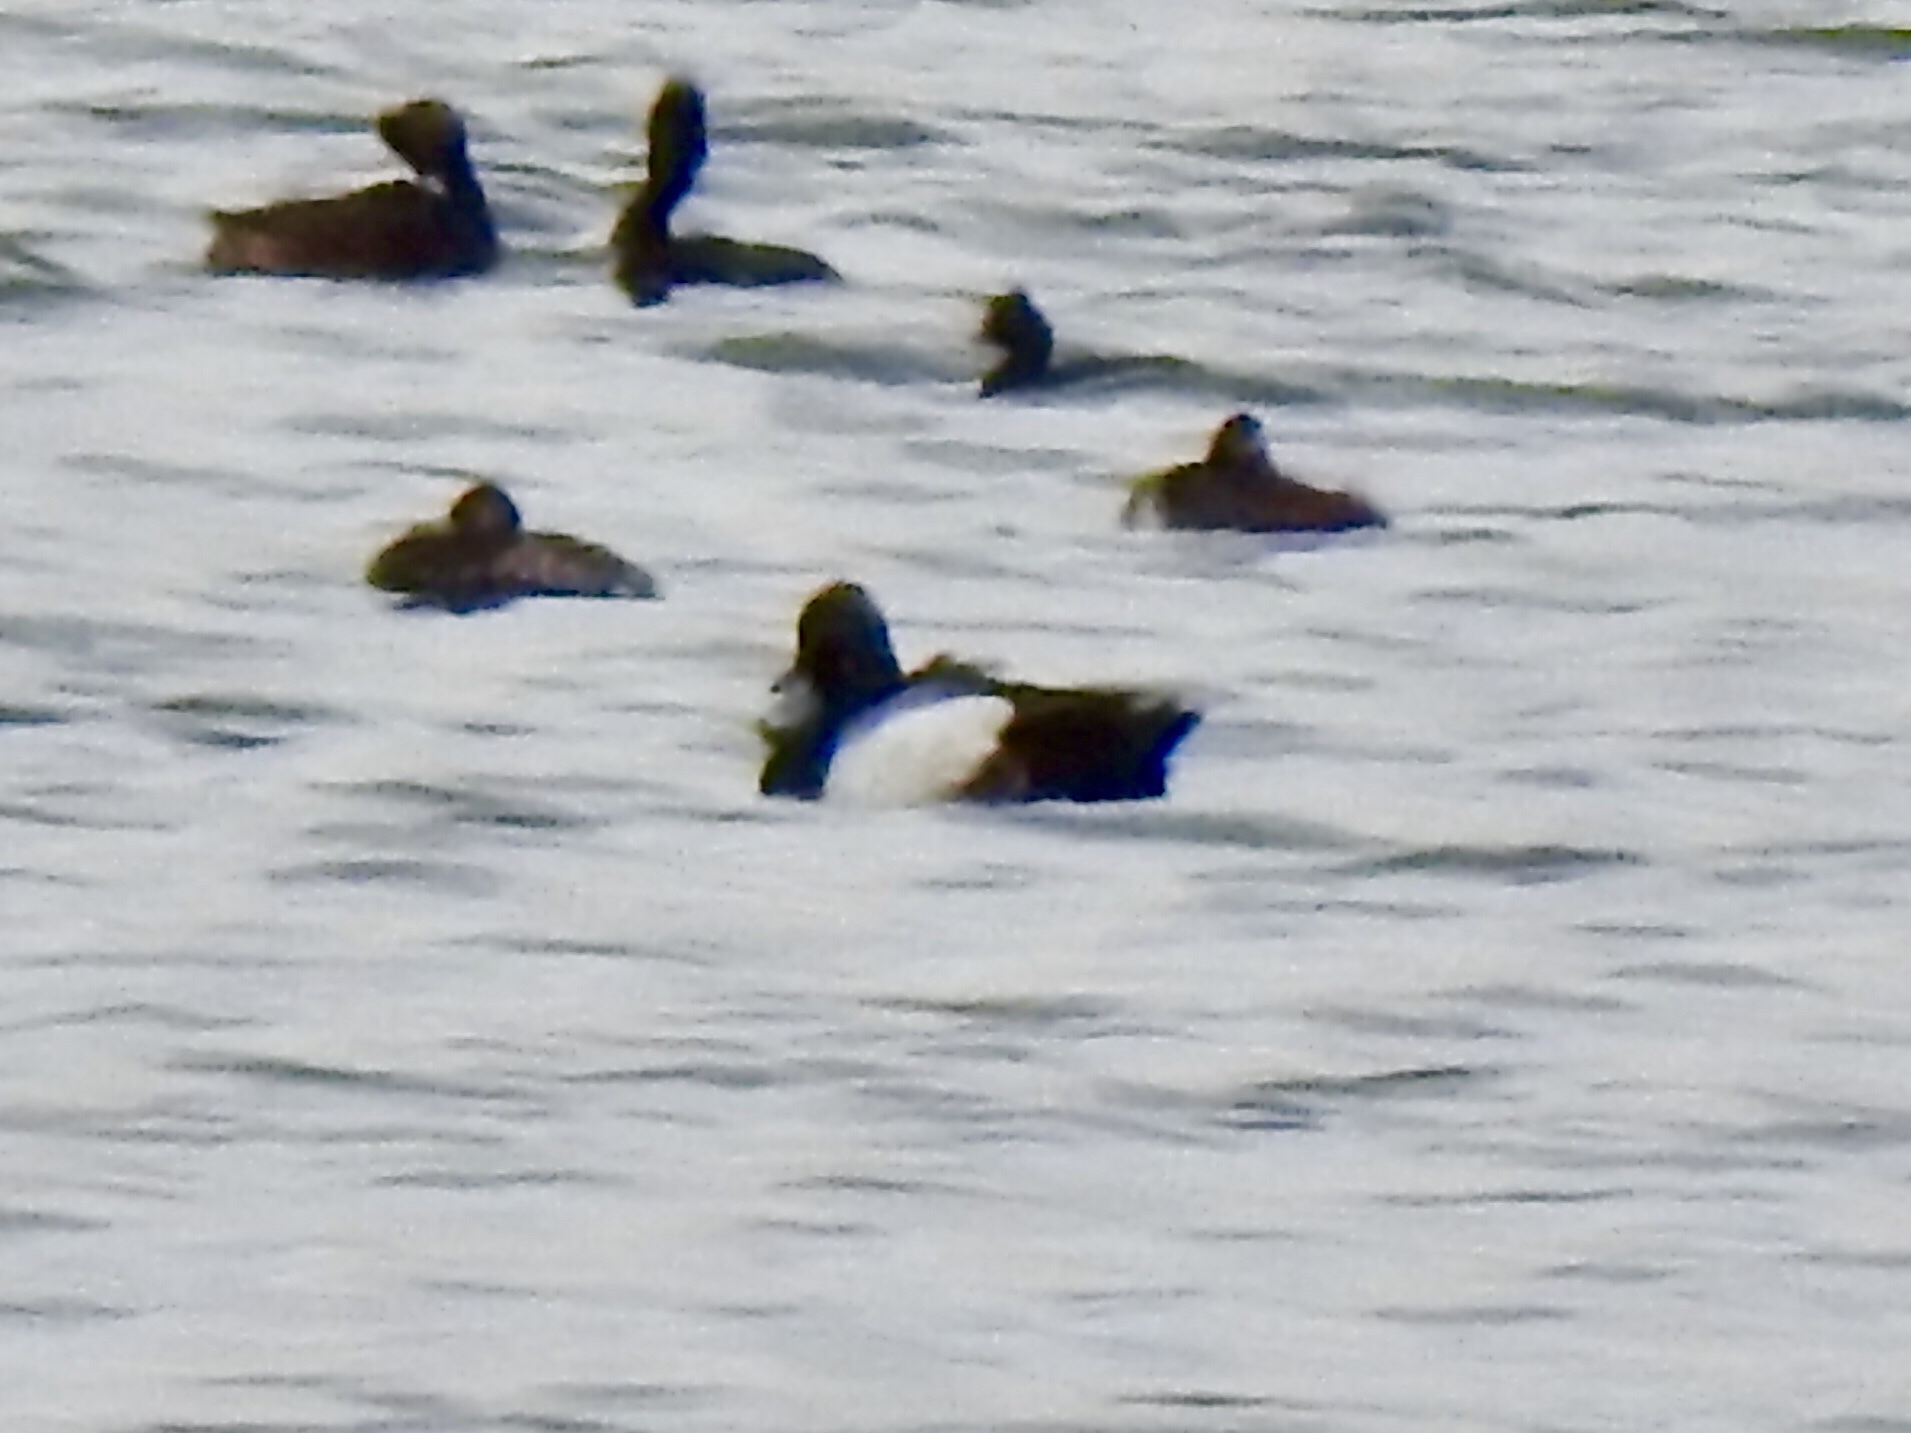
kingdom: Animalia
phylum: Chordata
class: Aves
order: Anseriformes
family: Anatidae
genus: Aythya
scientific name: Aythya
